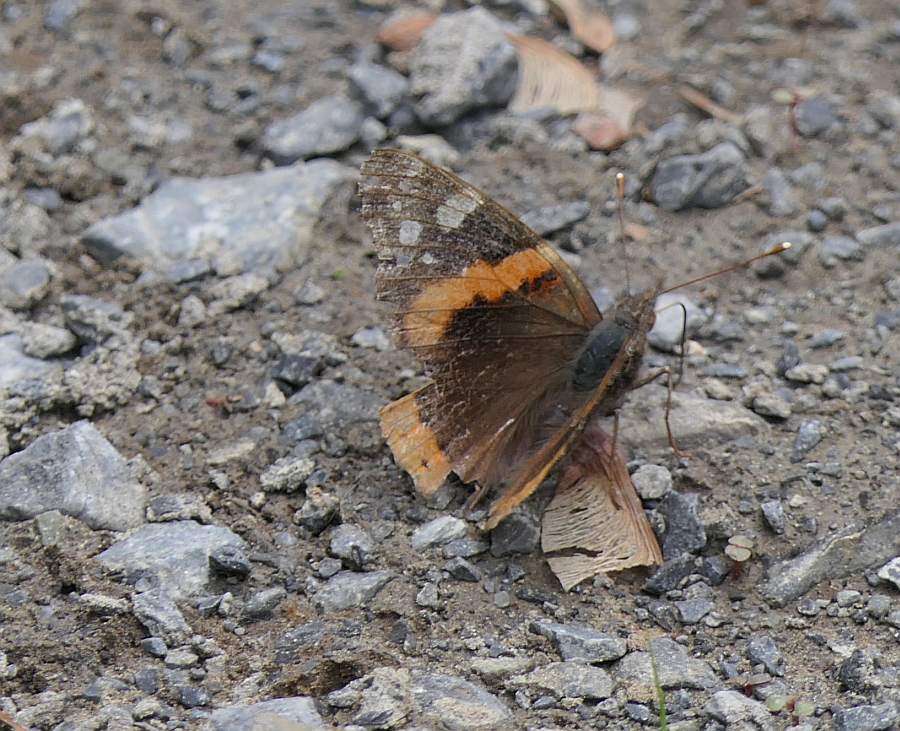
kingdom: Animalia
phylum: Arthropoda
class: Insecta
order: Lepidoptera
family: Nymphalidae
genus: Vanessa
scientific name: Vanessa atalanta
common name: Red admiral
